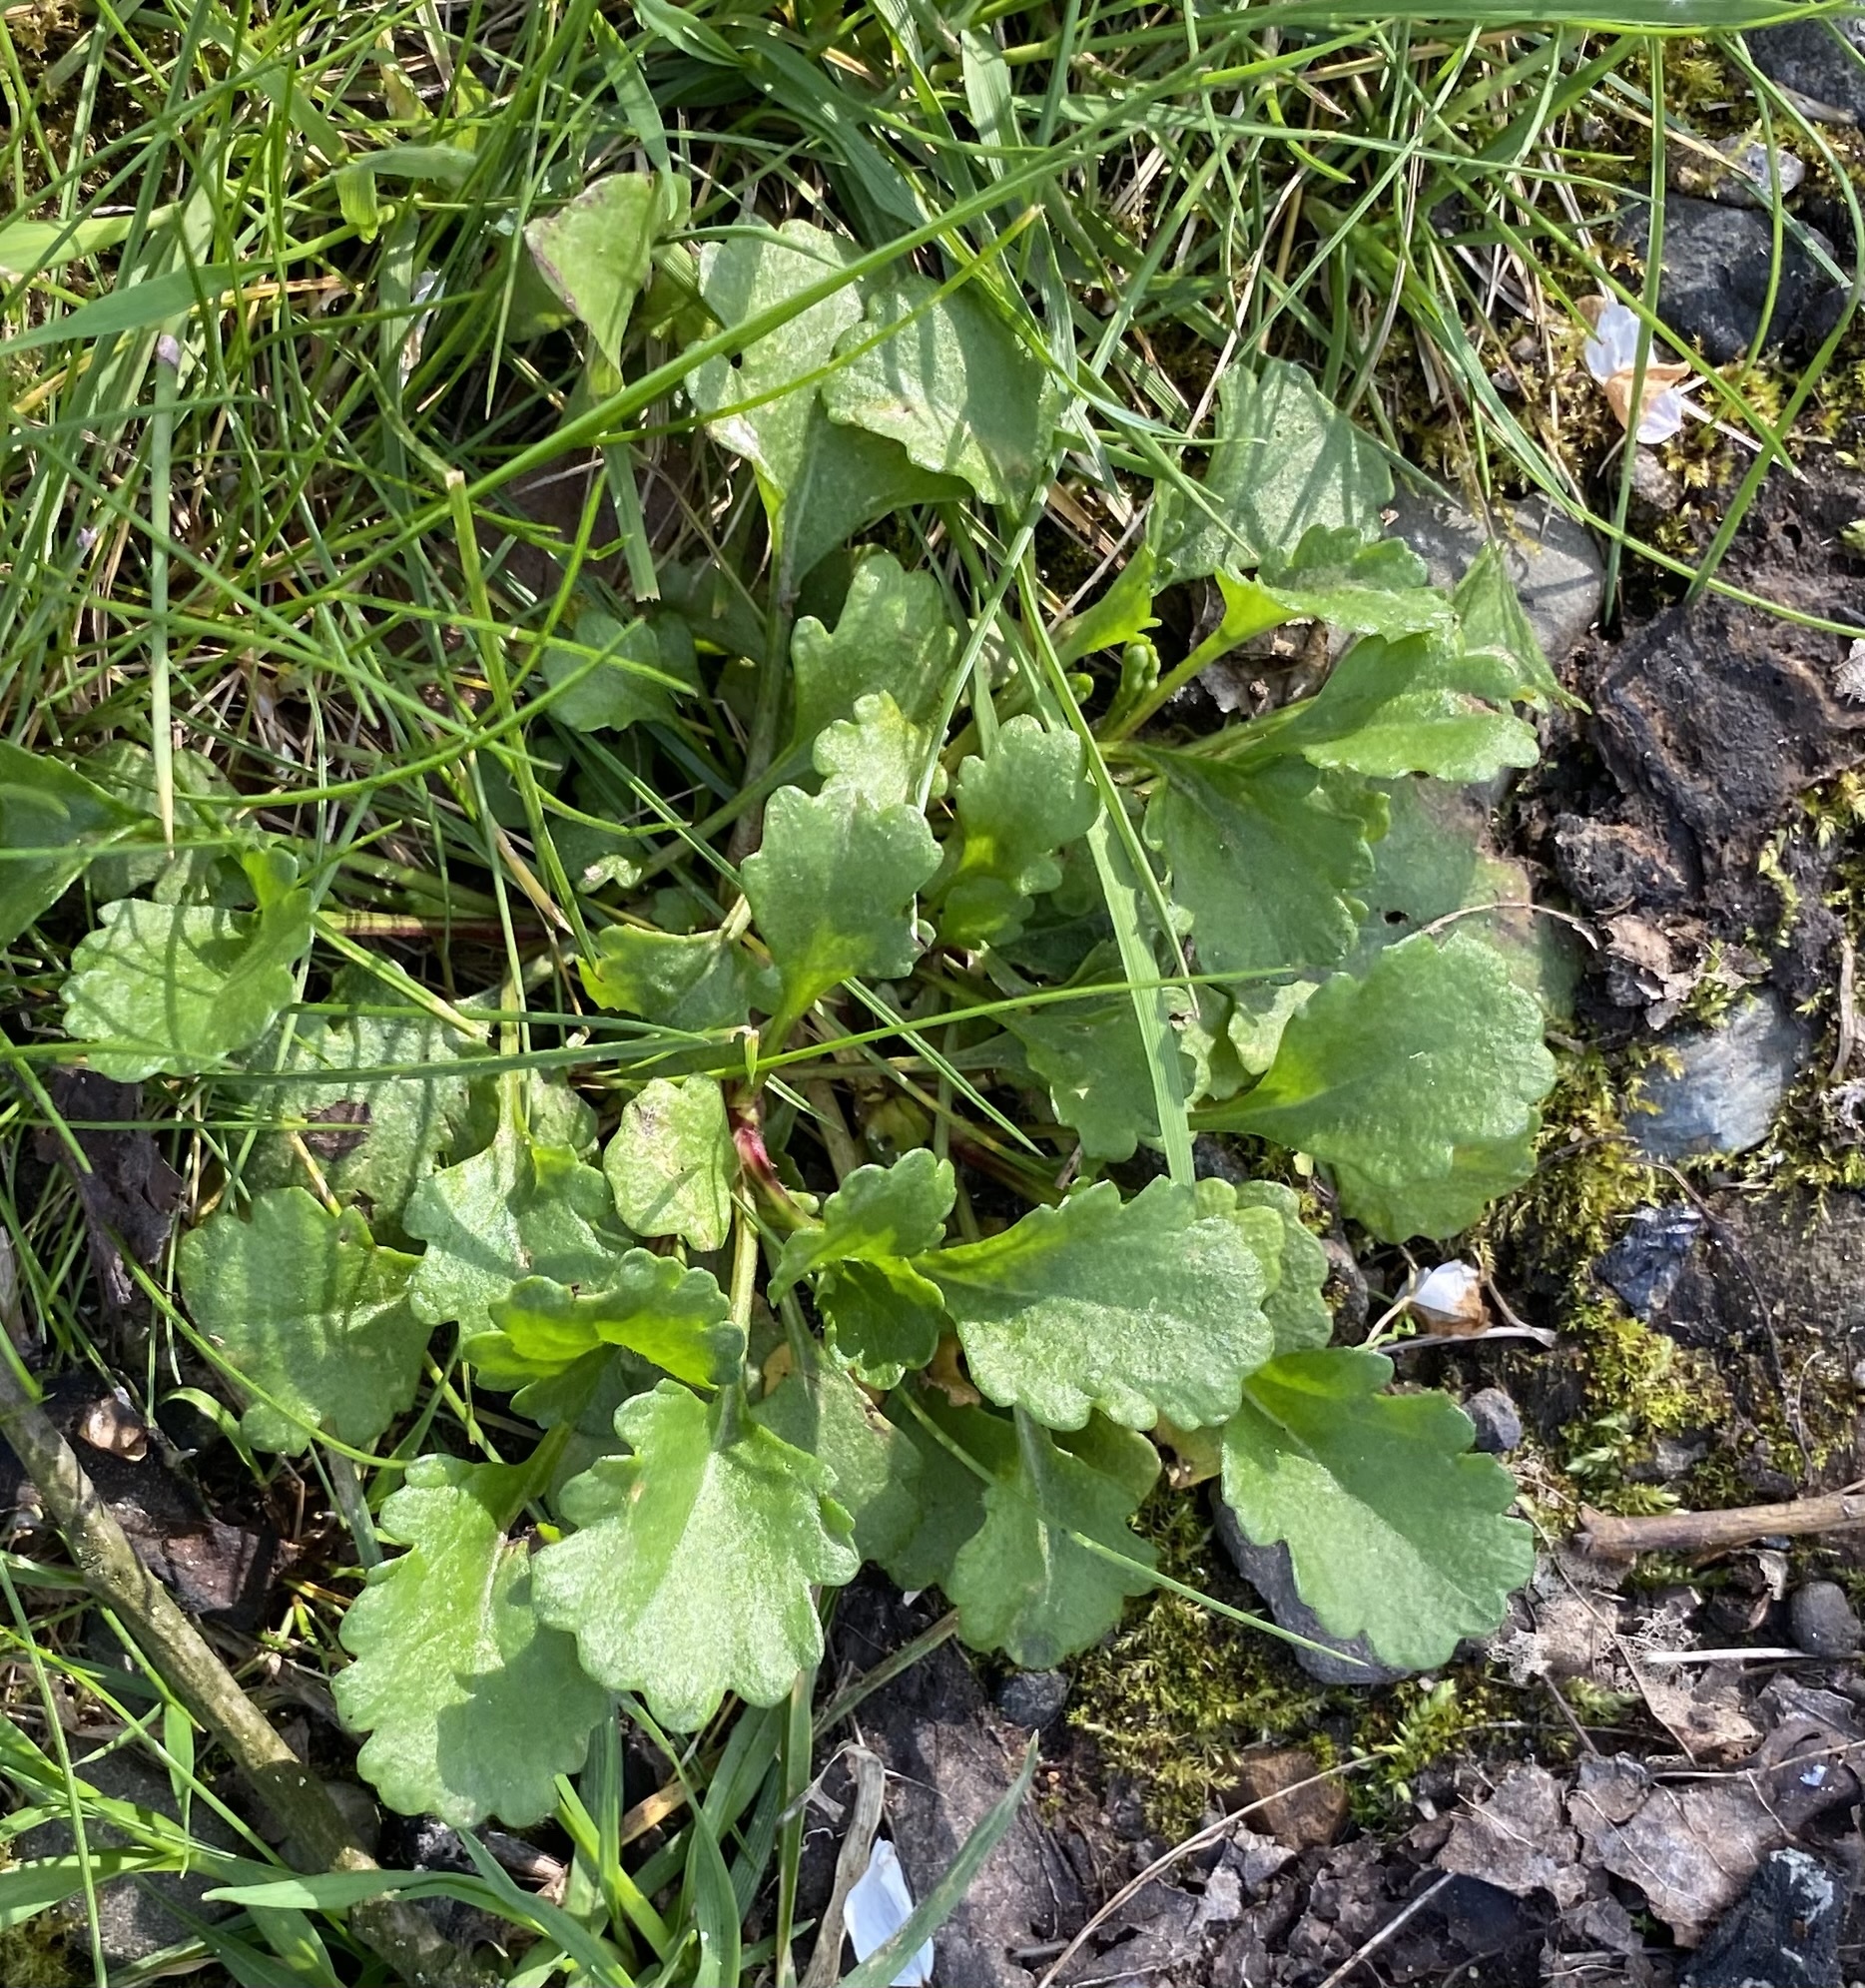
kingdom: Plantae
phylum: Tracheophyta
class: Magnoliopsida
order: Asterales
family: Asteraceae
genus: Leucanthemum
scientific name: Leucanthemum vulgare
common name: Oxeye daisy
